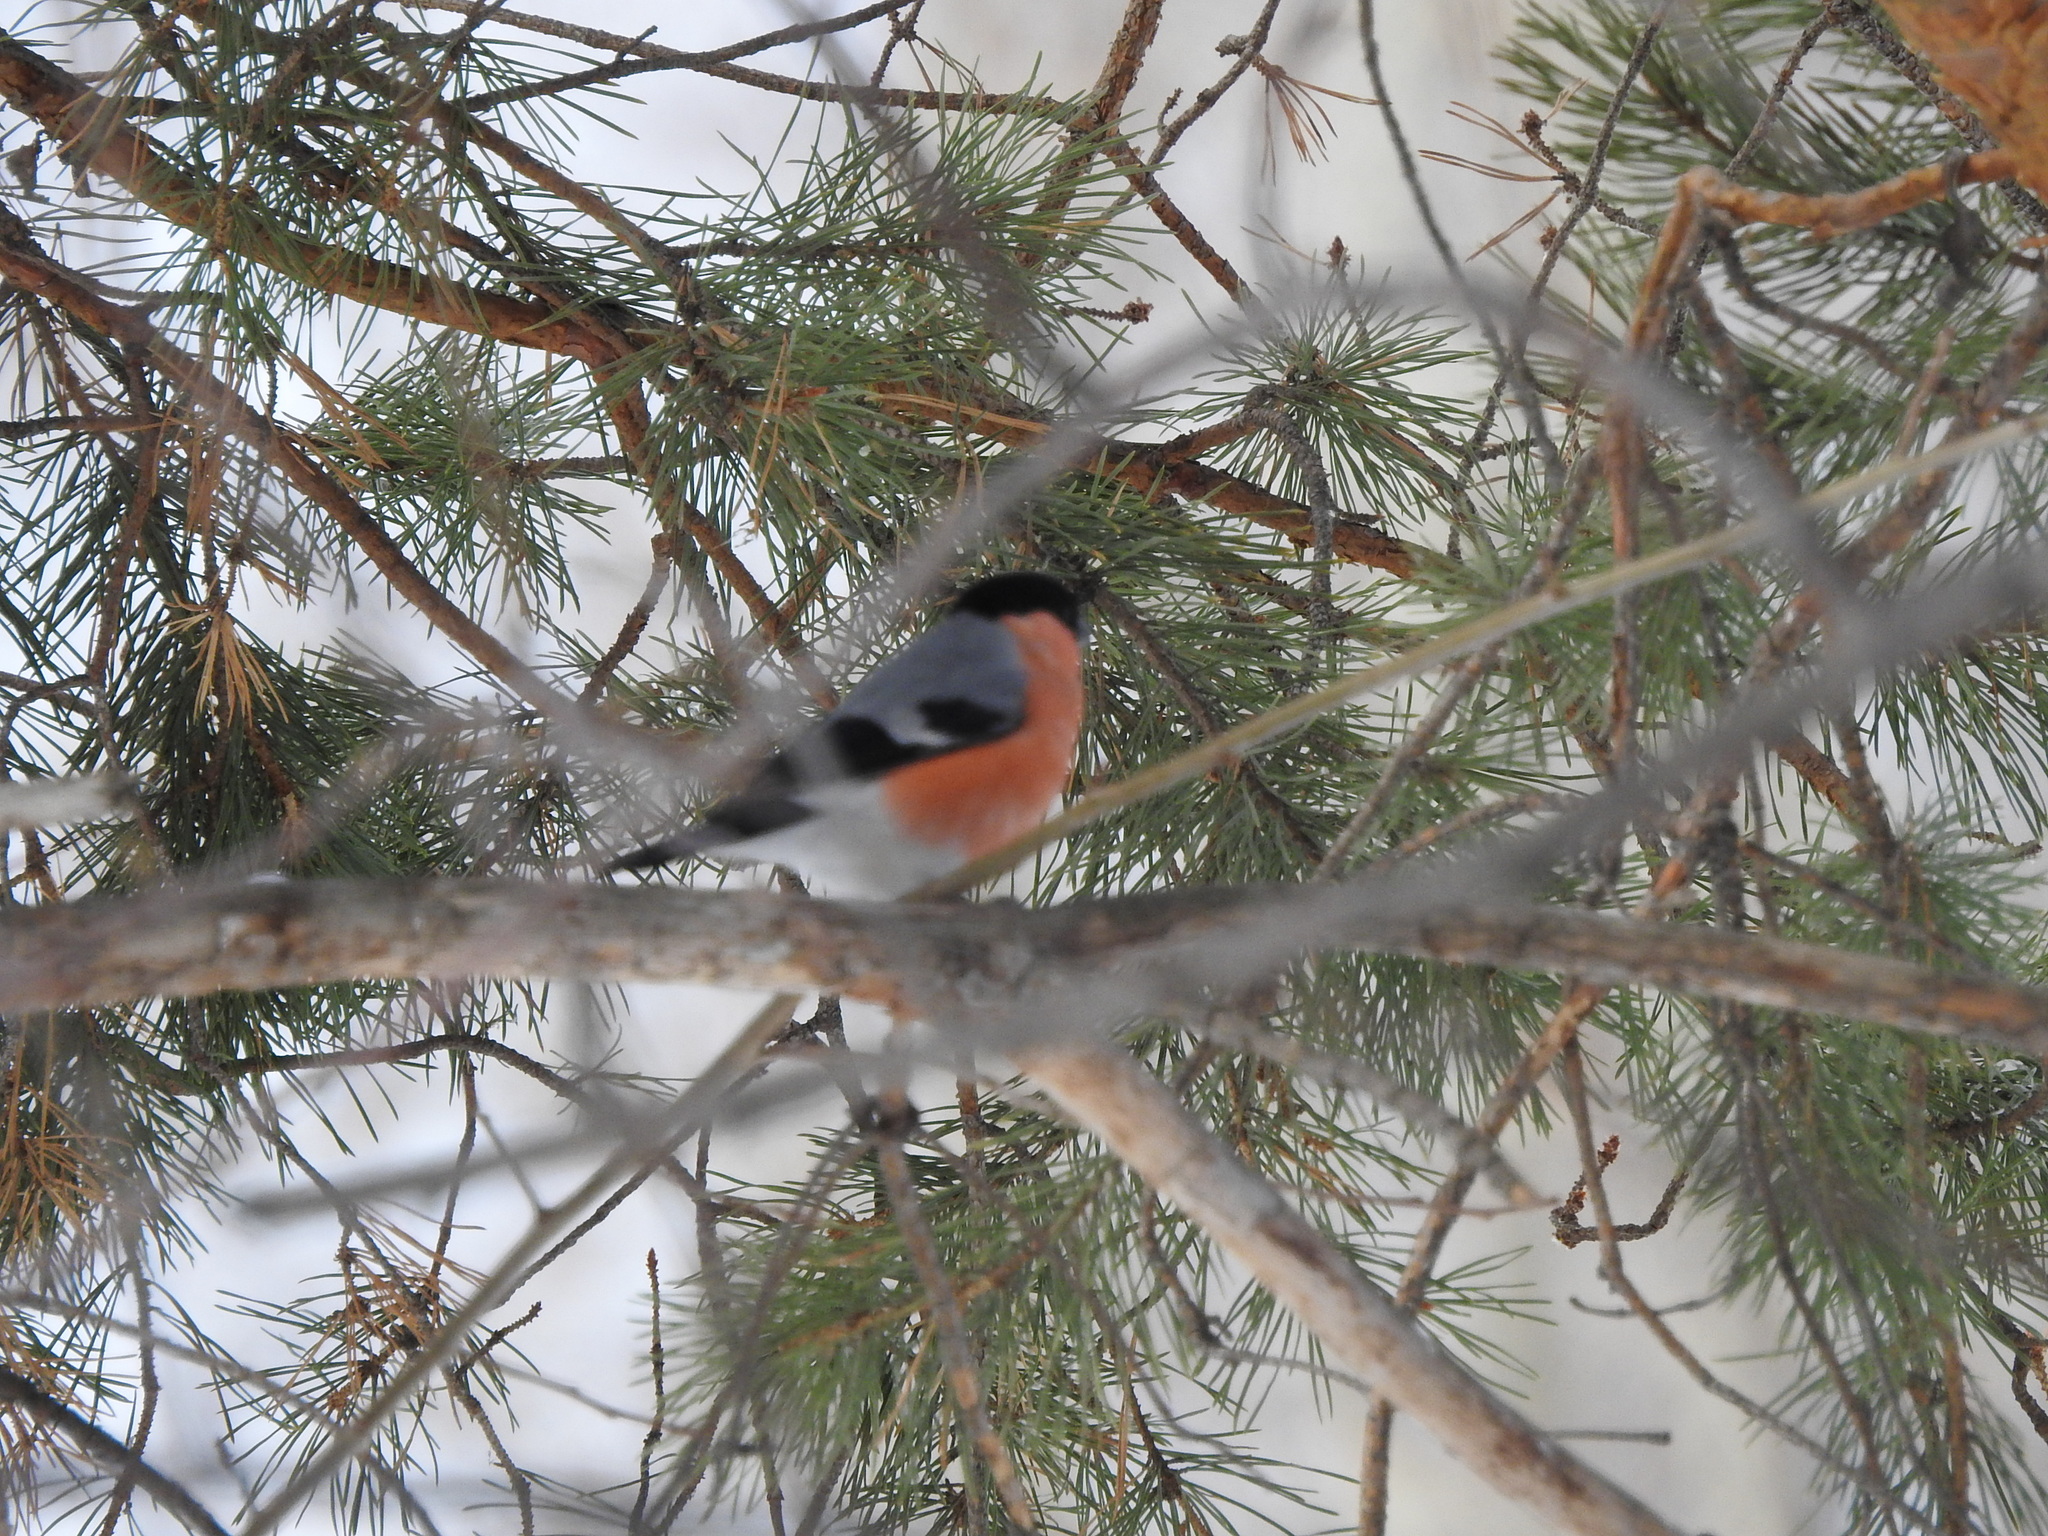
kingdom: Animalia
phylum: Chordata
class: Aves
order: Passeriformes
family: Fringillidae
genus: Pyrrhula
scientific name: Pyrrhula pyrrhula
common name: Eurasian bullfinch
